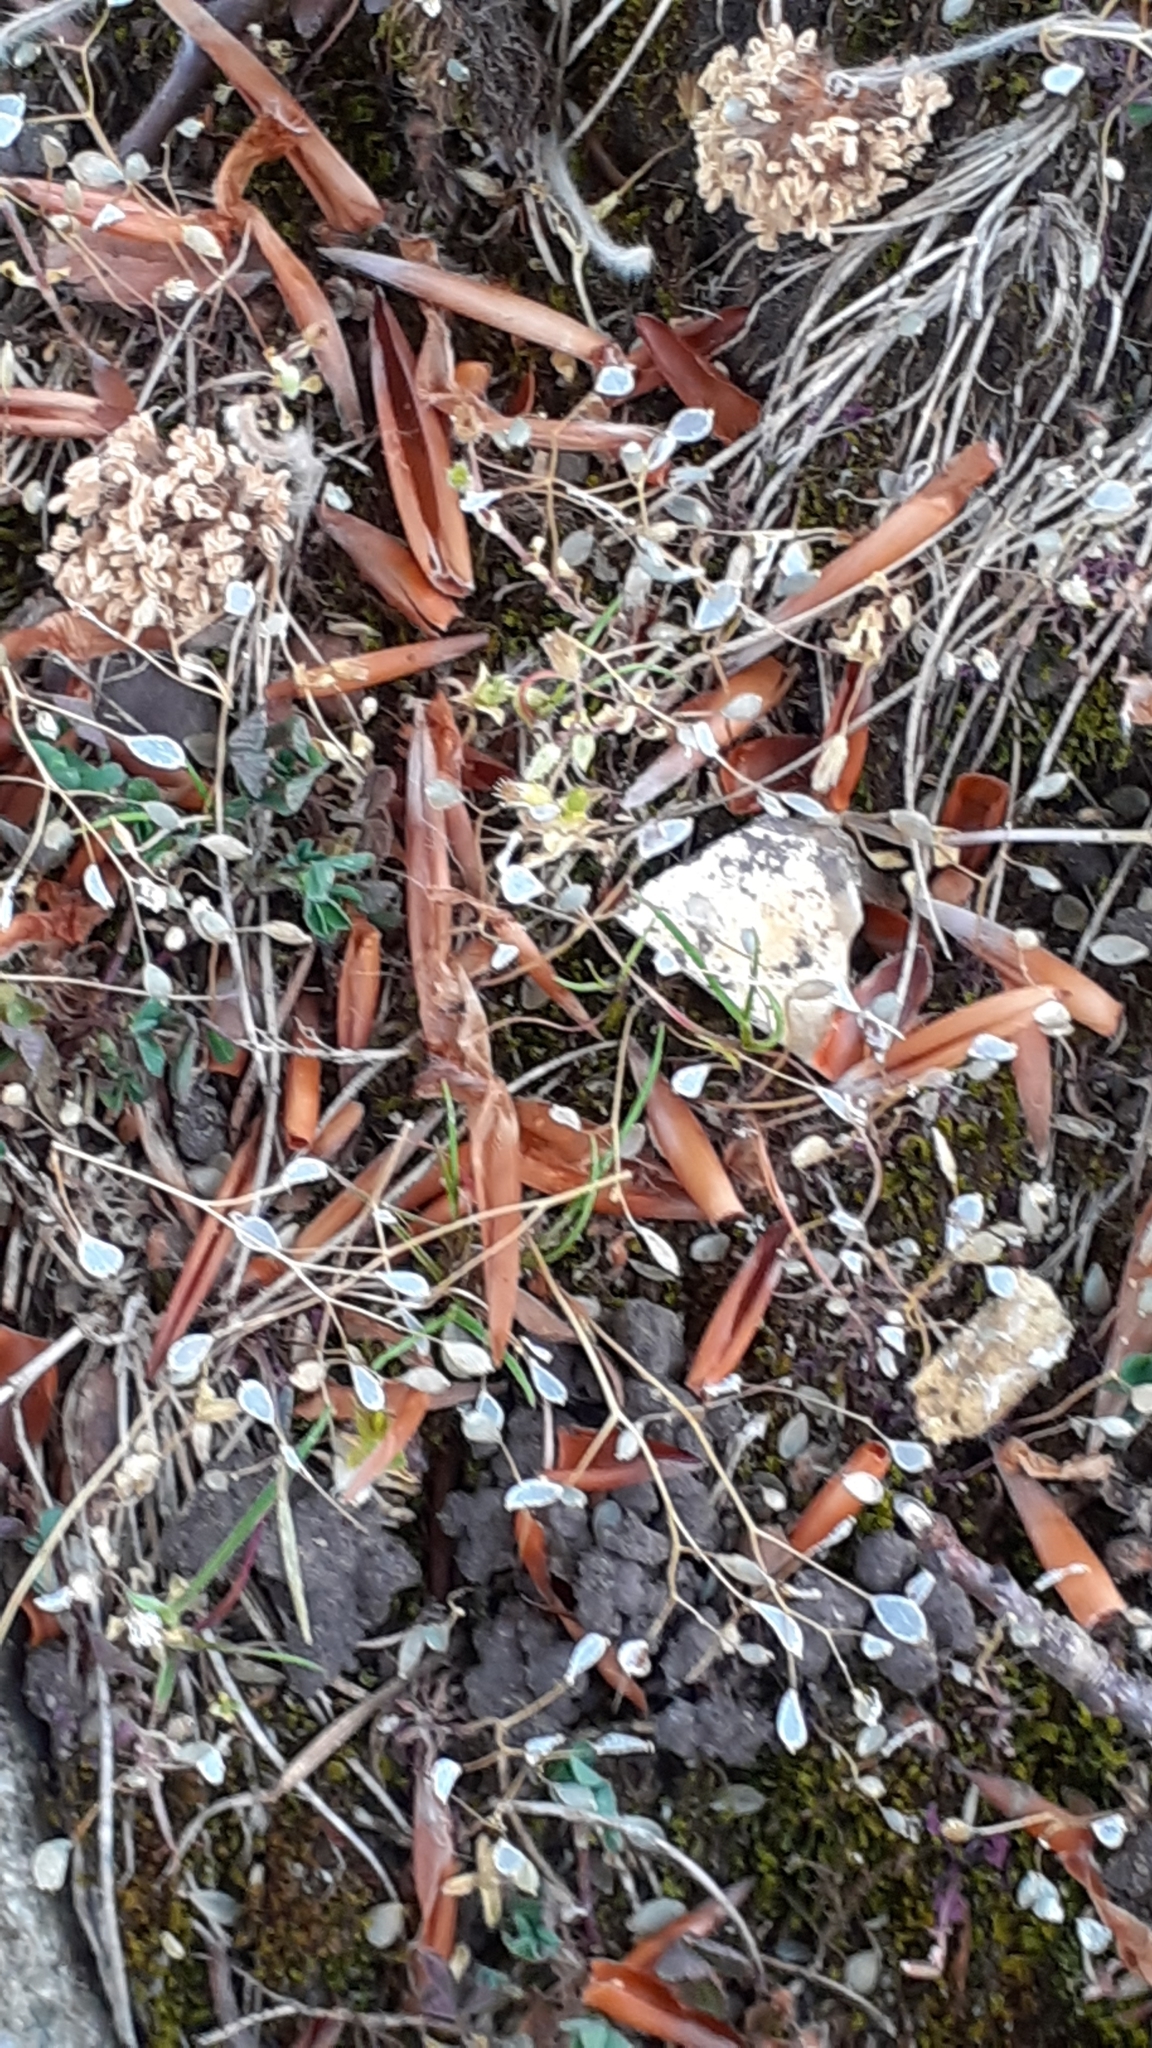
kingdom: Plantae
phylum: Tracheophyta
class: Magnoliopsida
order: Brassicales
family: Brassicaceae
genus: Draba
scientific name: Draba verna
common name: Spring draba
